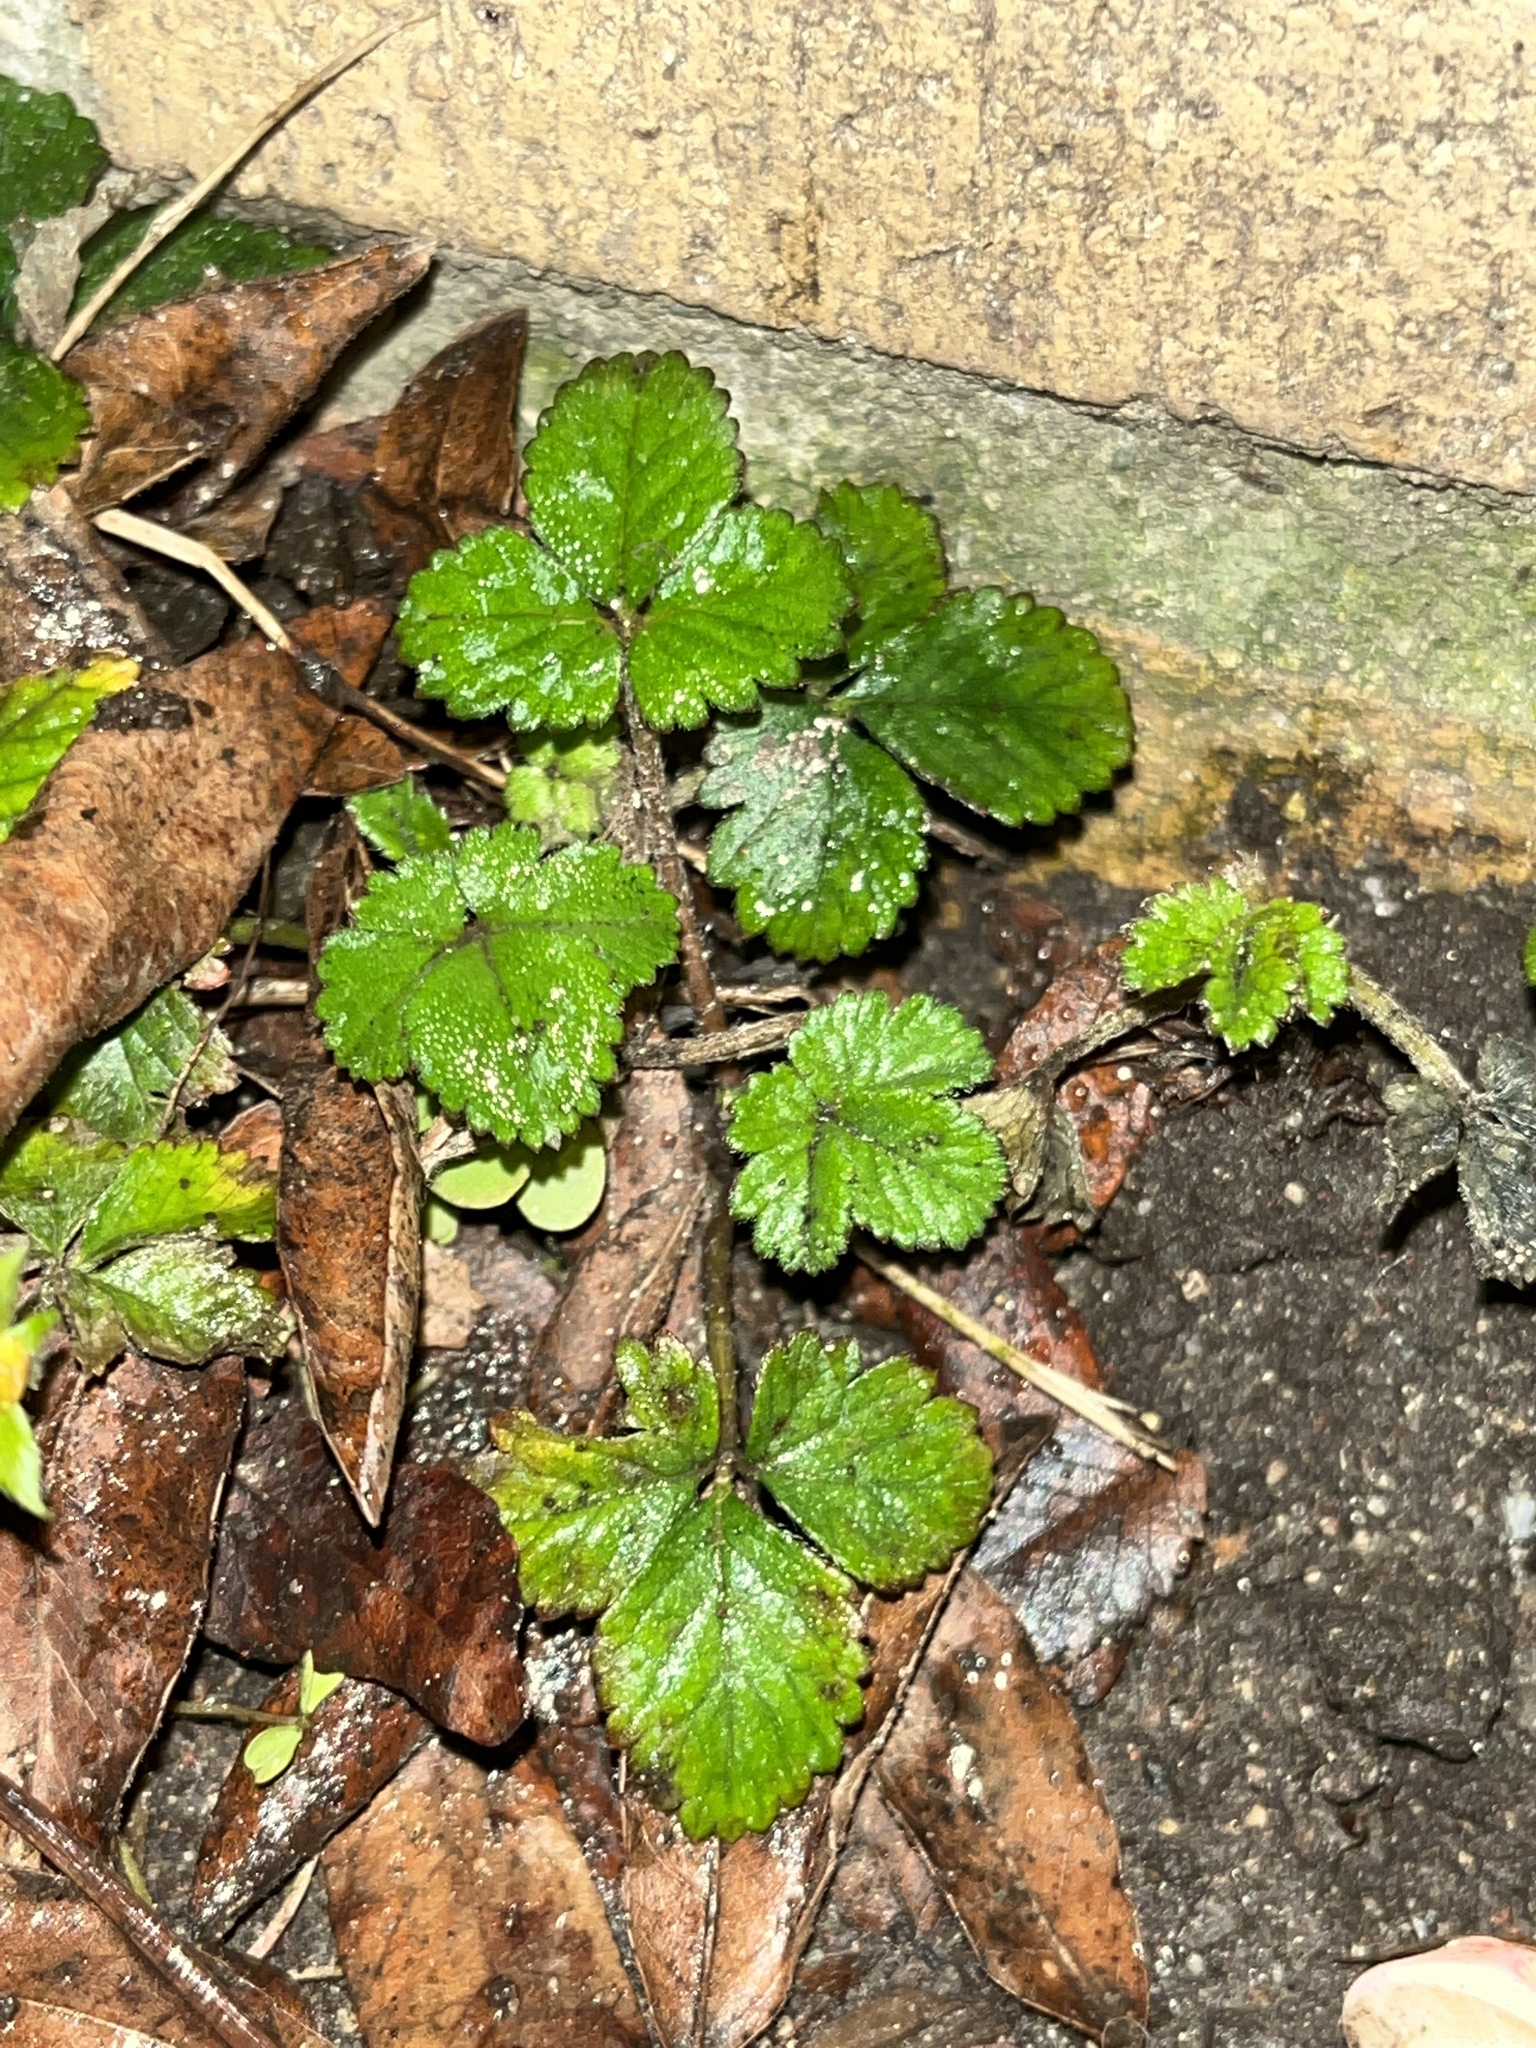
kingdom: Plantae
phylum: Tracheophyta
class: Magnoliopsida
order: Rosales
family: Rosaceae
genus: Potentilla
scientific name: Potentilla indica
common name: Yellow-flowered strawberry
